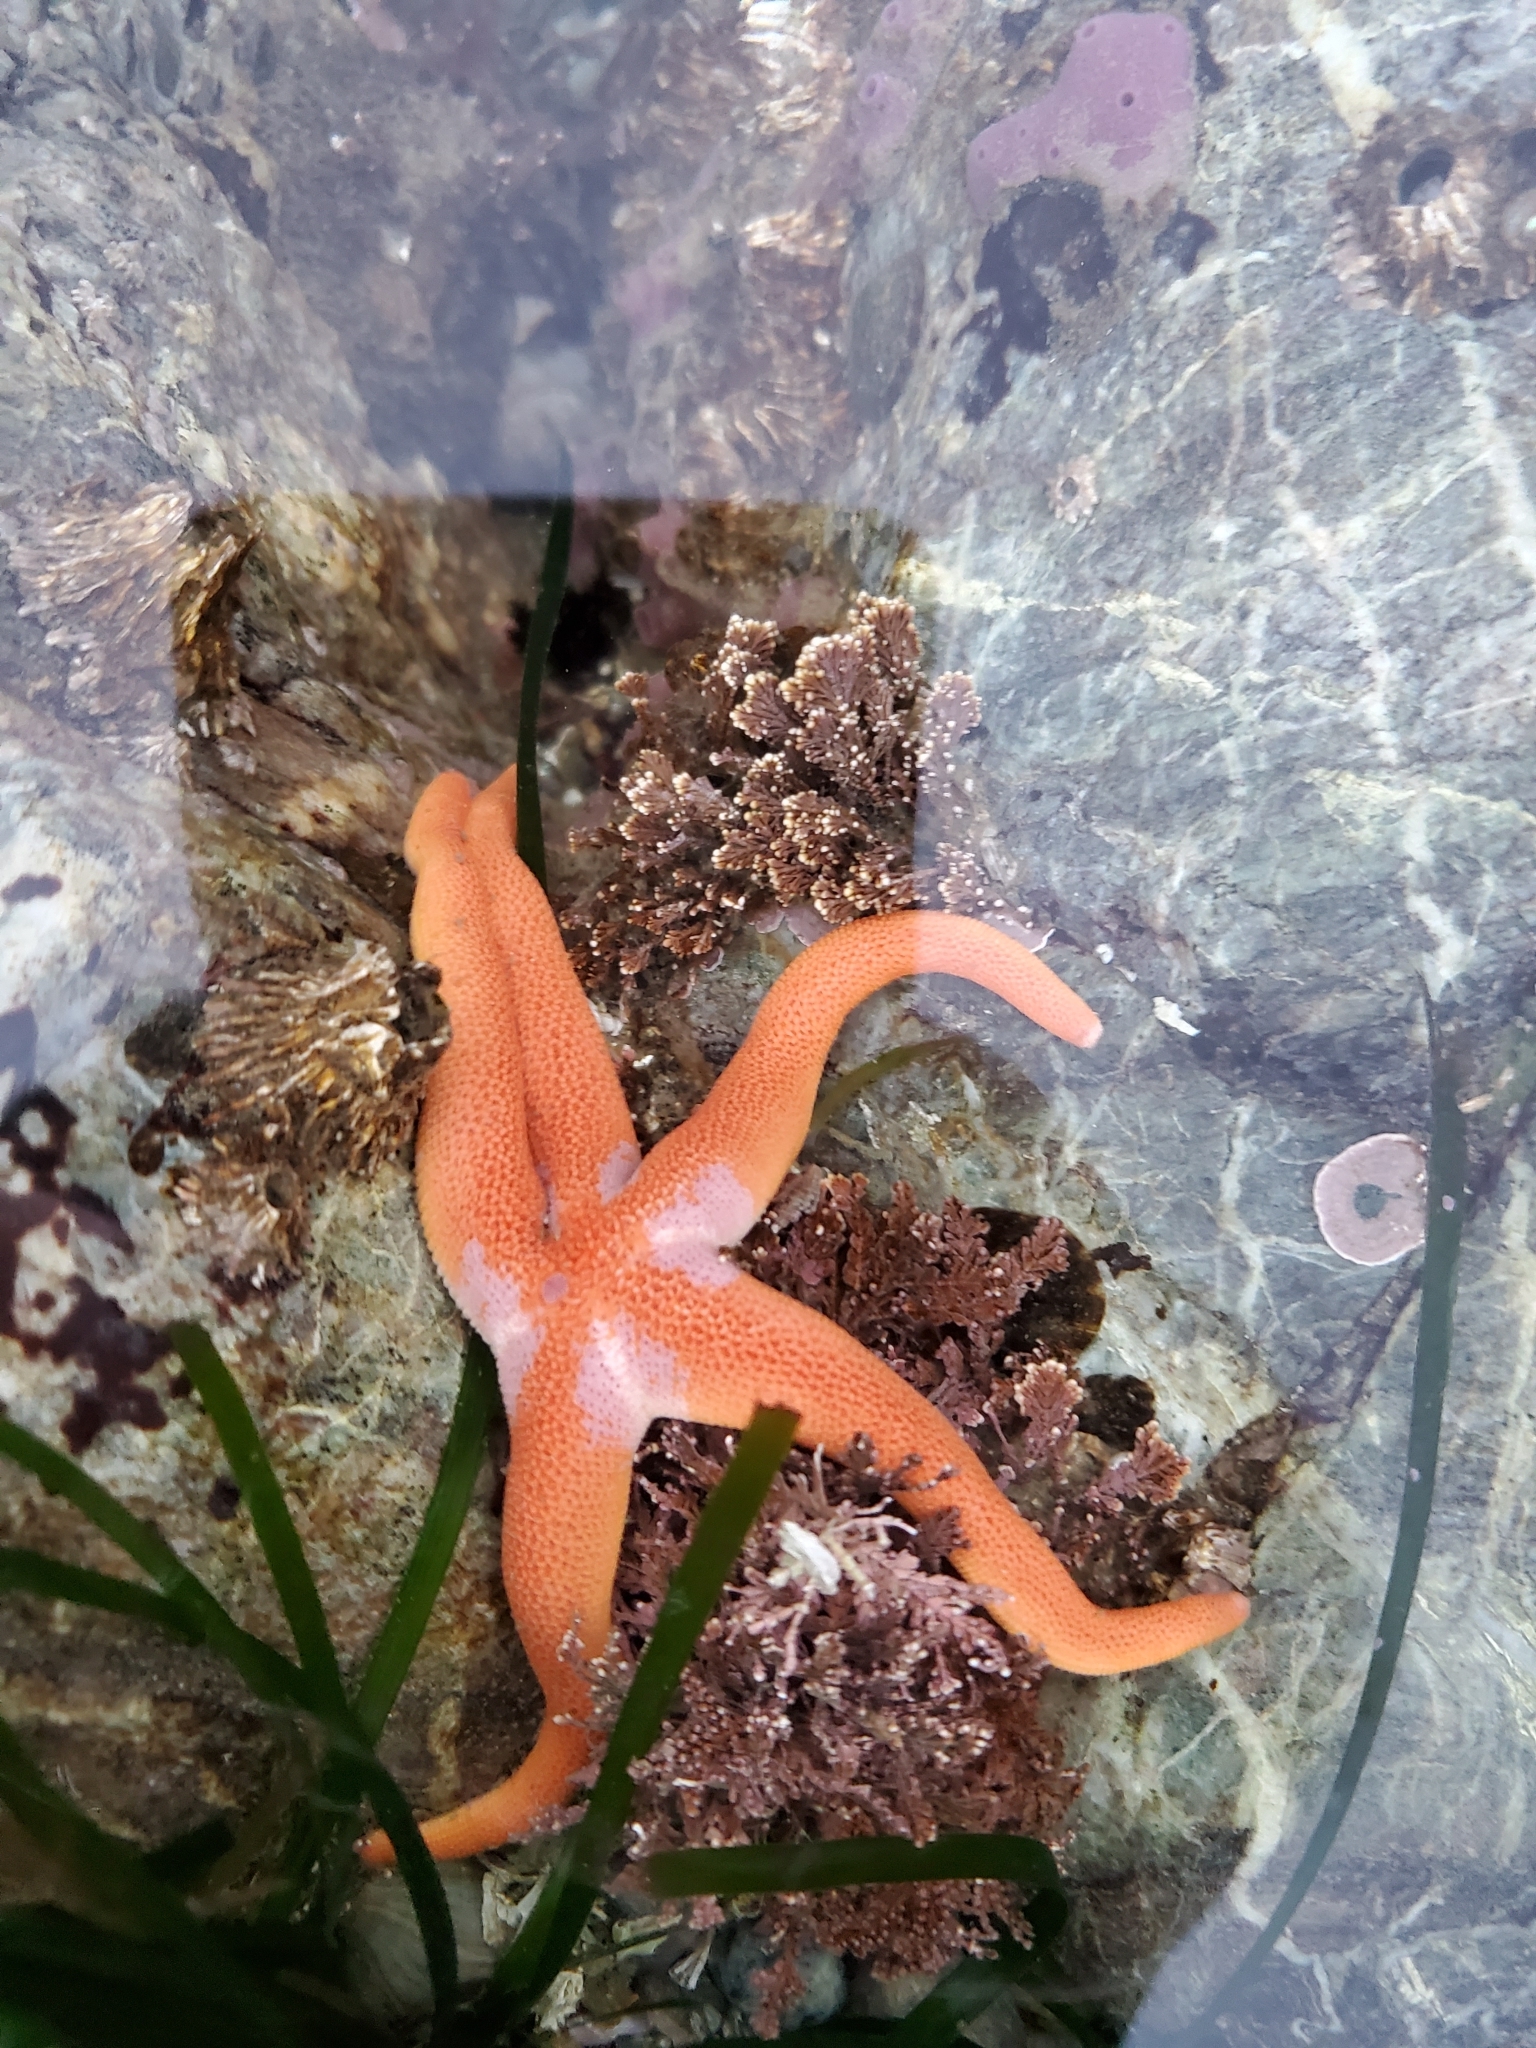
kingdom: Animalia
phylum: Echinodermata
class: Asteroidea
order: Spinulosida
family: Echinasteridae
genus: Henricia
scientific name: Henricia leviuscula
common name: Pacific blood star
